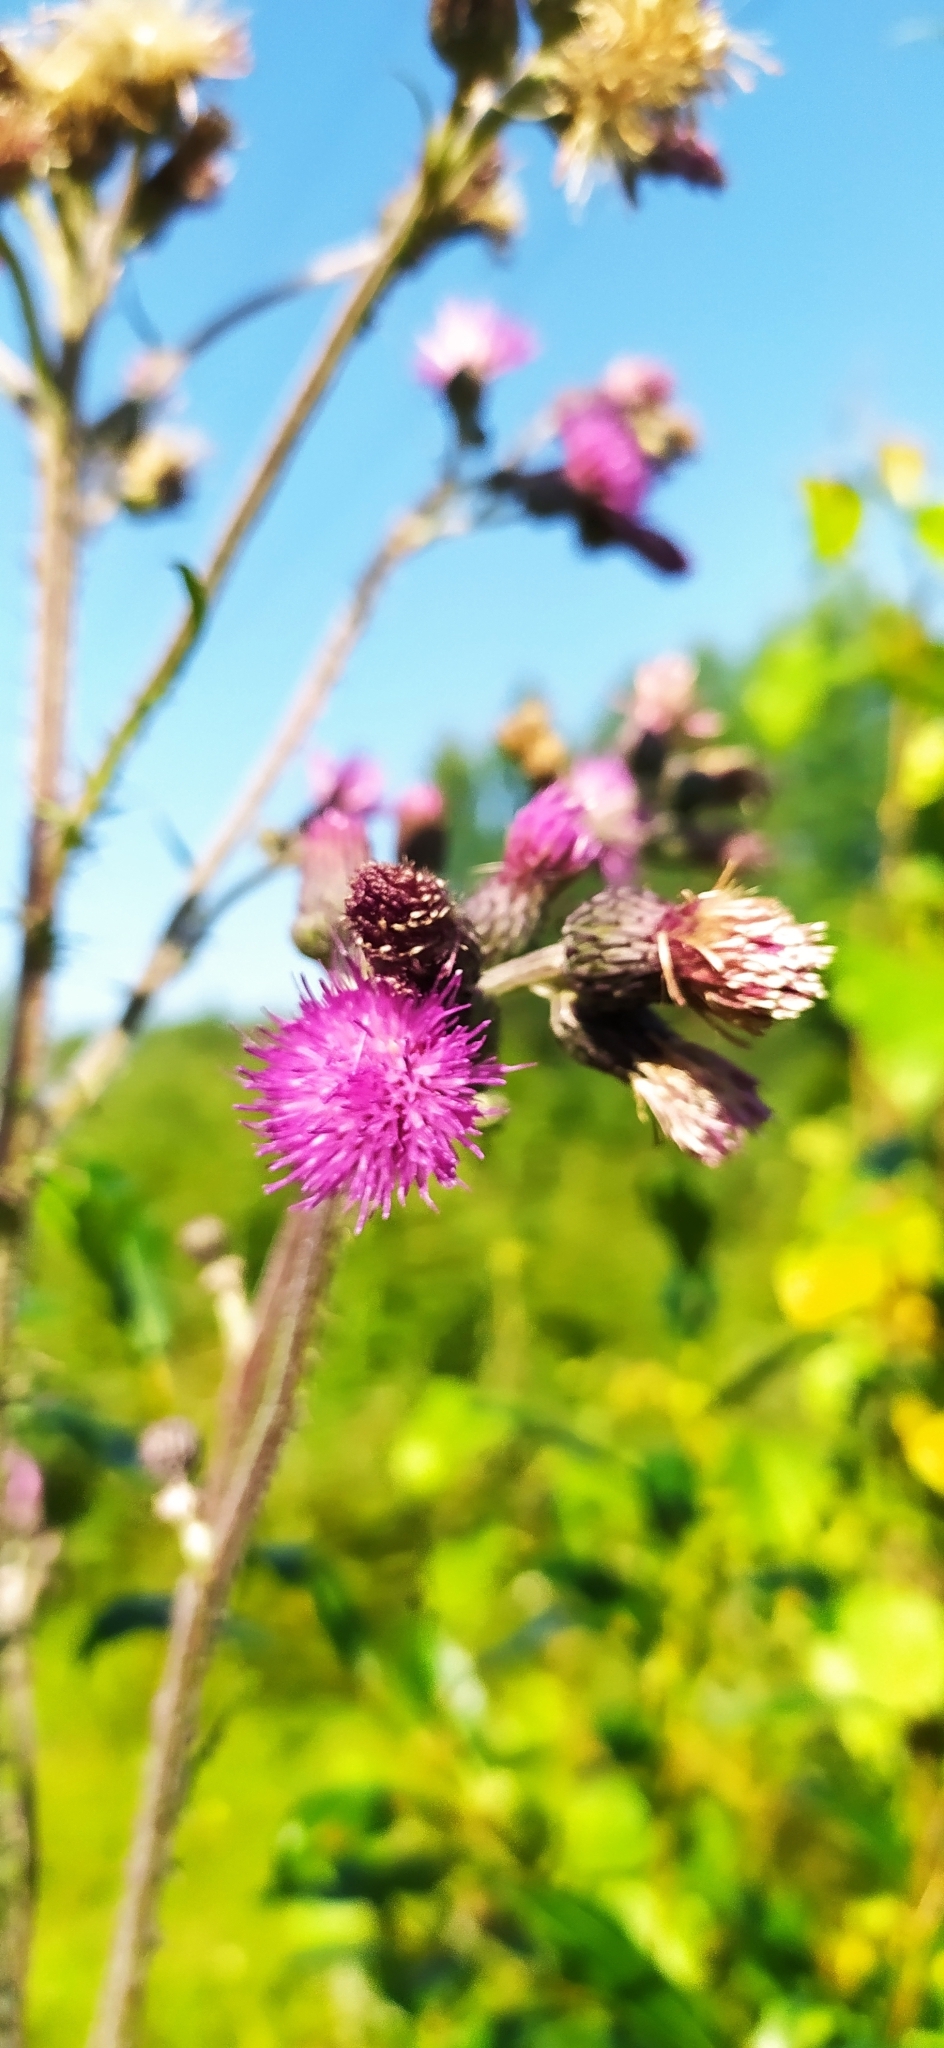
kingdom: Plantae
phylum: Tracheophyta
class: Magnoliopsida
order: Asterales
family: Asteraceae
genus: Cirsium
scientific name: Cirsium palustre
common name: Marsh thistle
